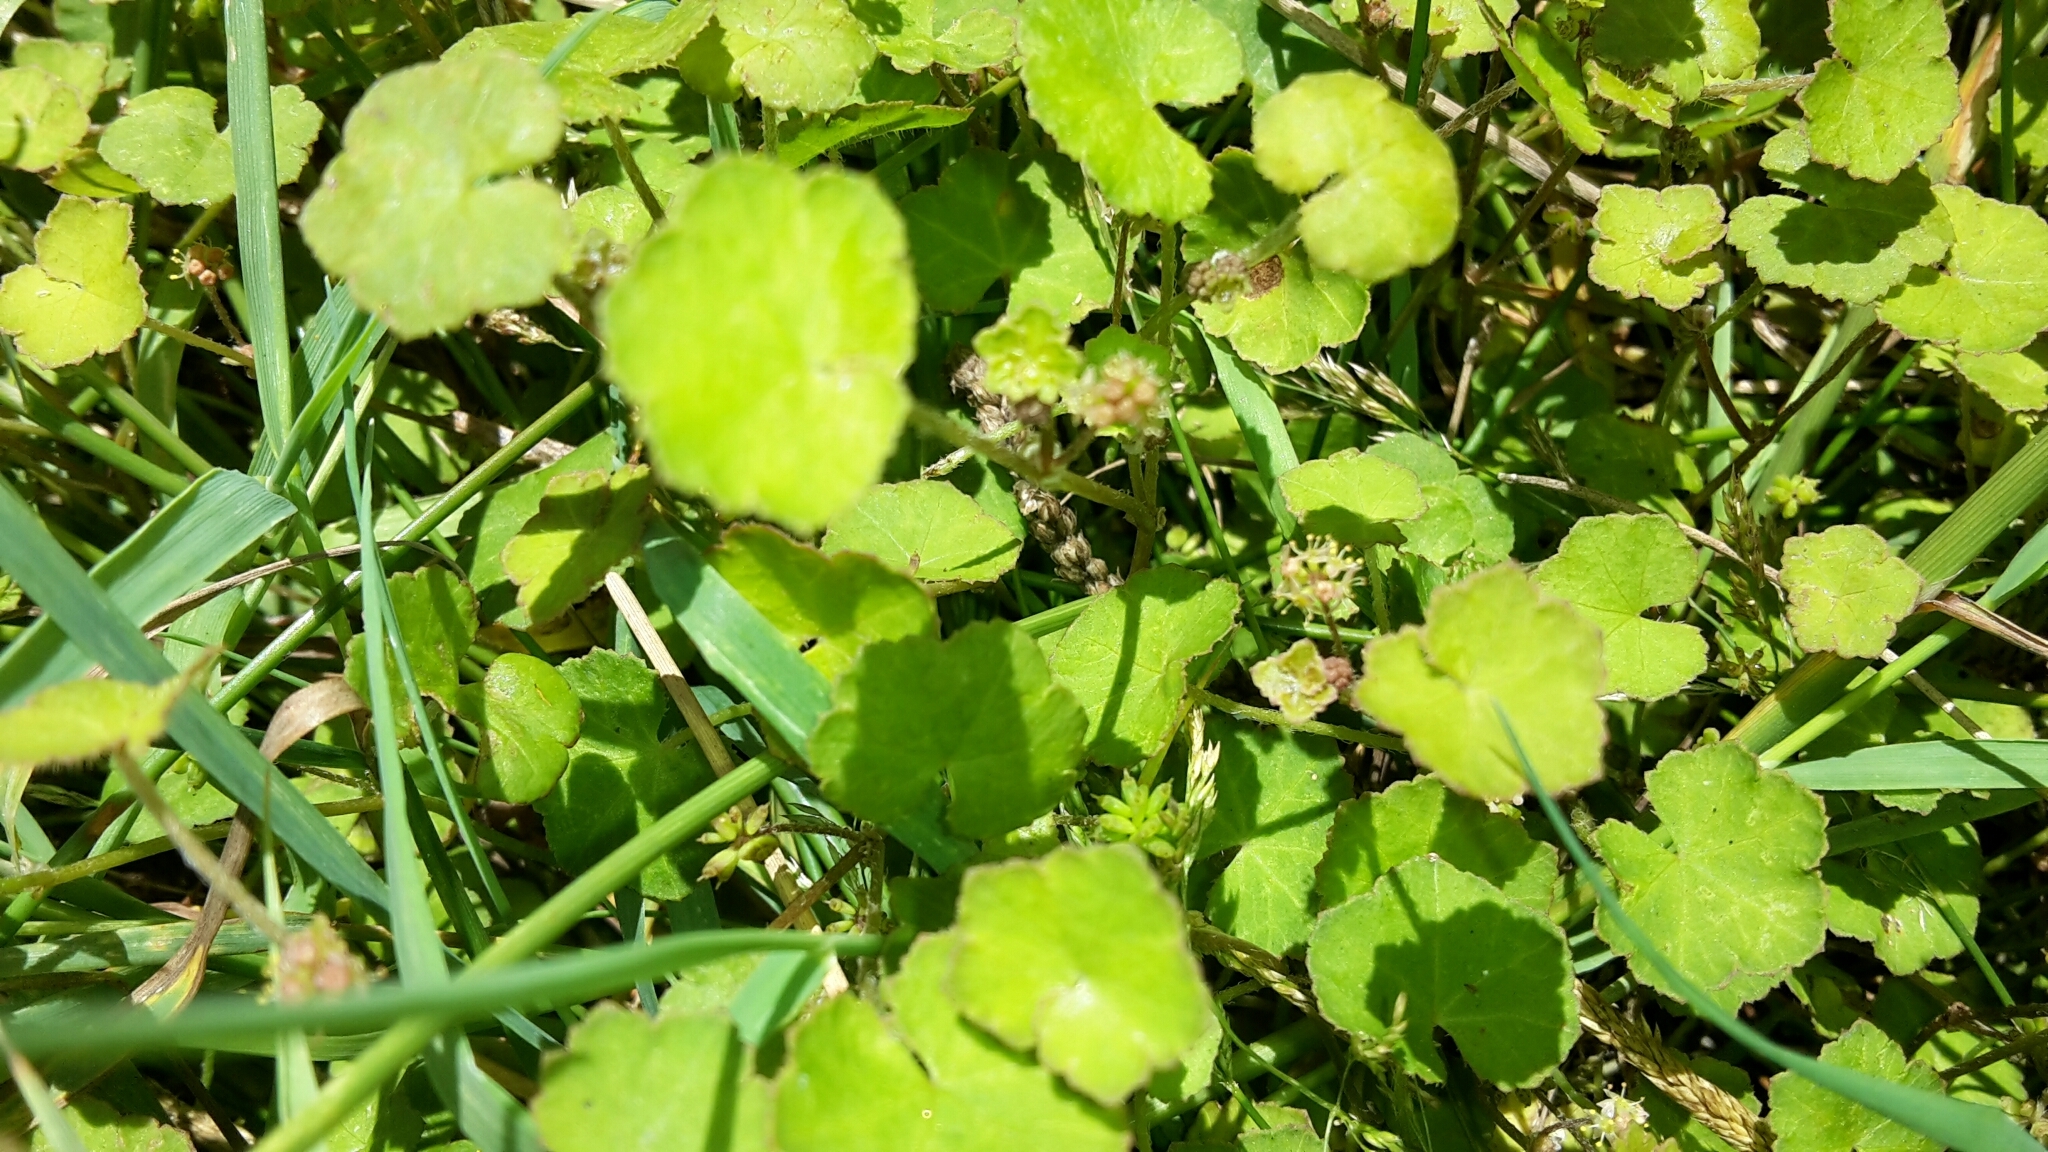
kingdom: Plantae
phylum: Tracheophyta
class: Magnoliopsida
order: Apiales
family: Araliaceae
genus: Hydrocotyle
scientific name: Hydrocotyle novae-zeelandiae
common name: New zealand pennywort
